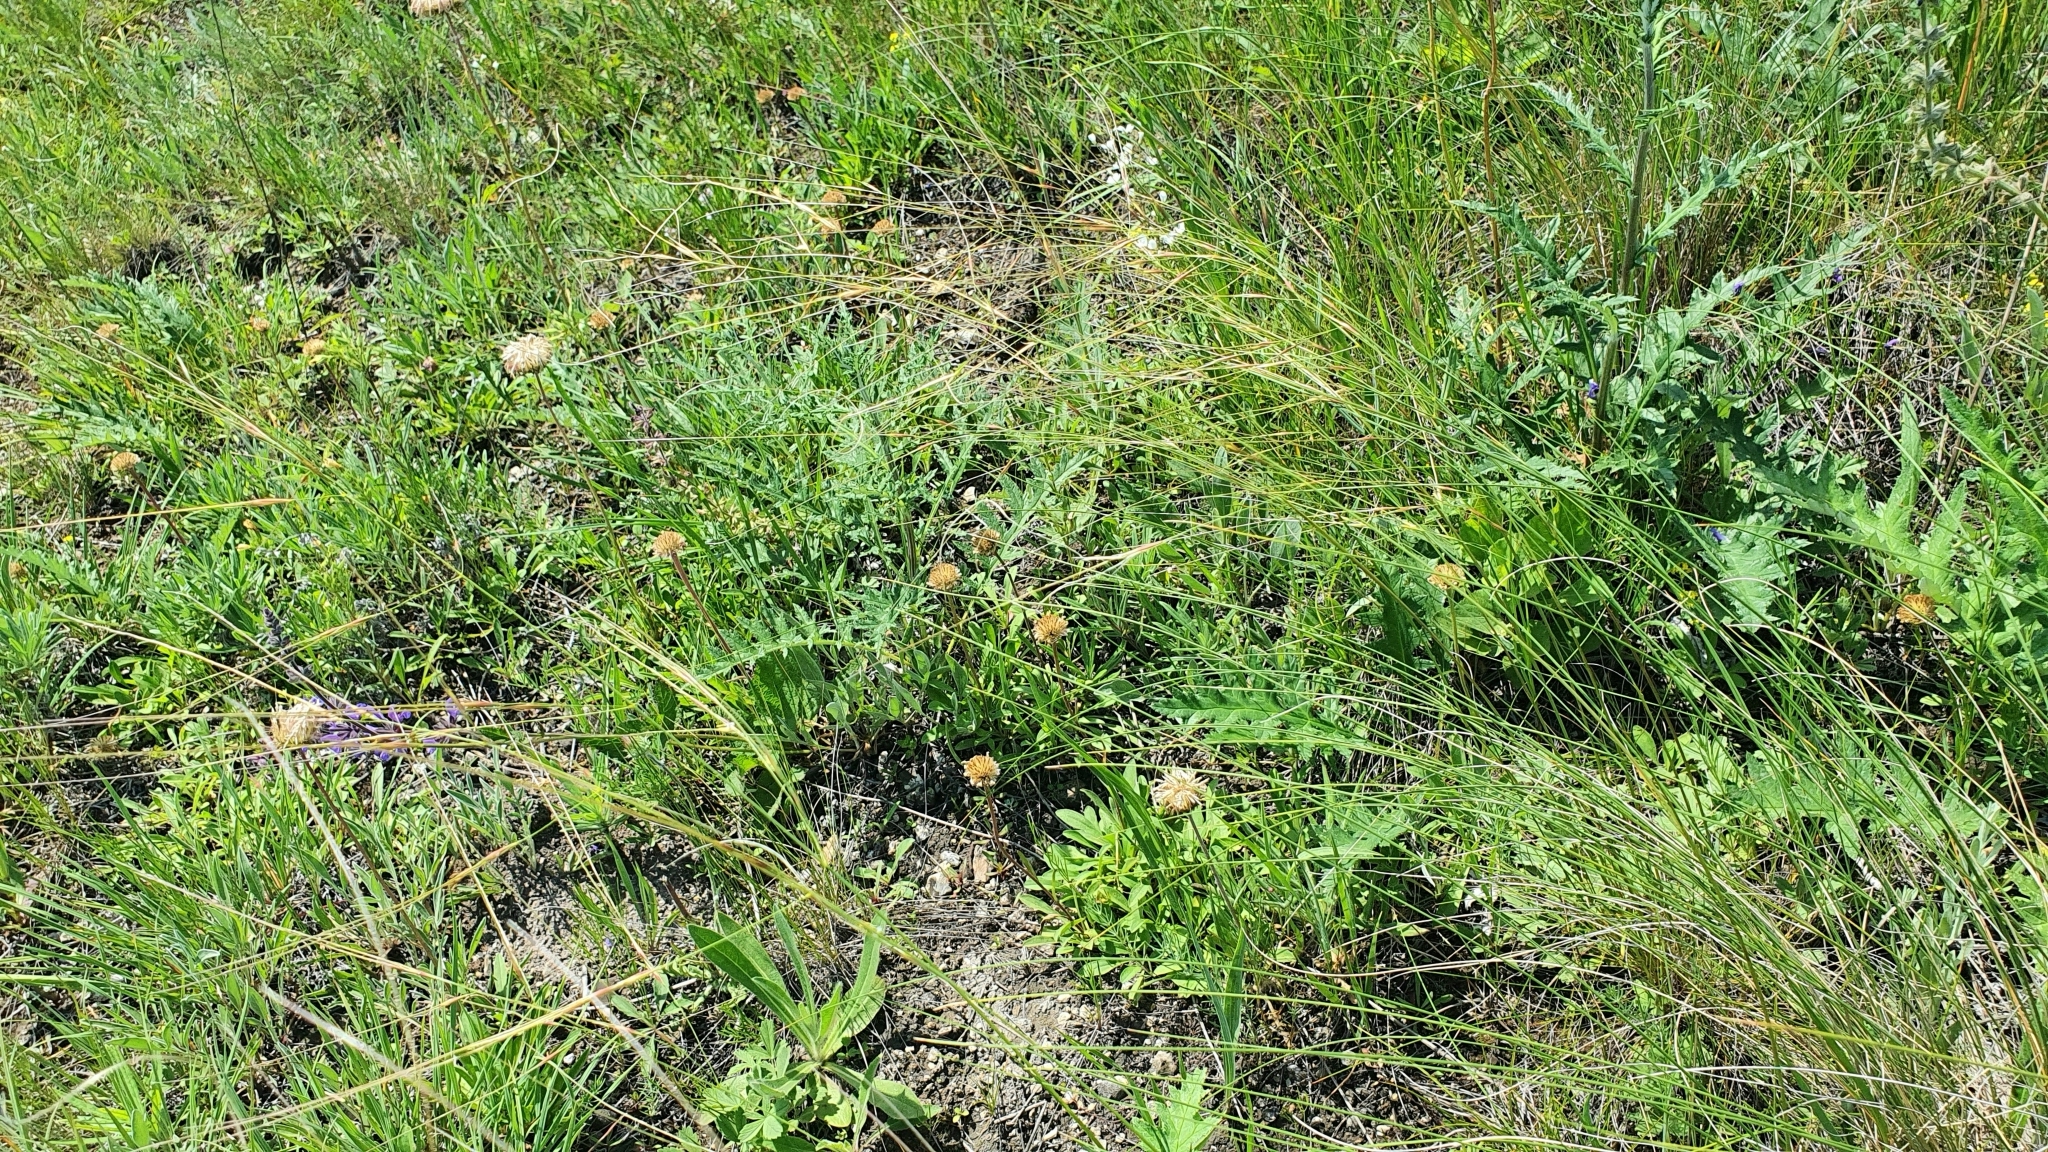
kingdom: Plantae
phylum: Tracheophyta
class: Liliopsida
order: Poales
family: Poaceae
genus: Stipa
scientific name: Stipa korshinskyi
